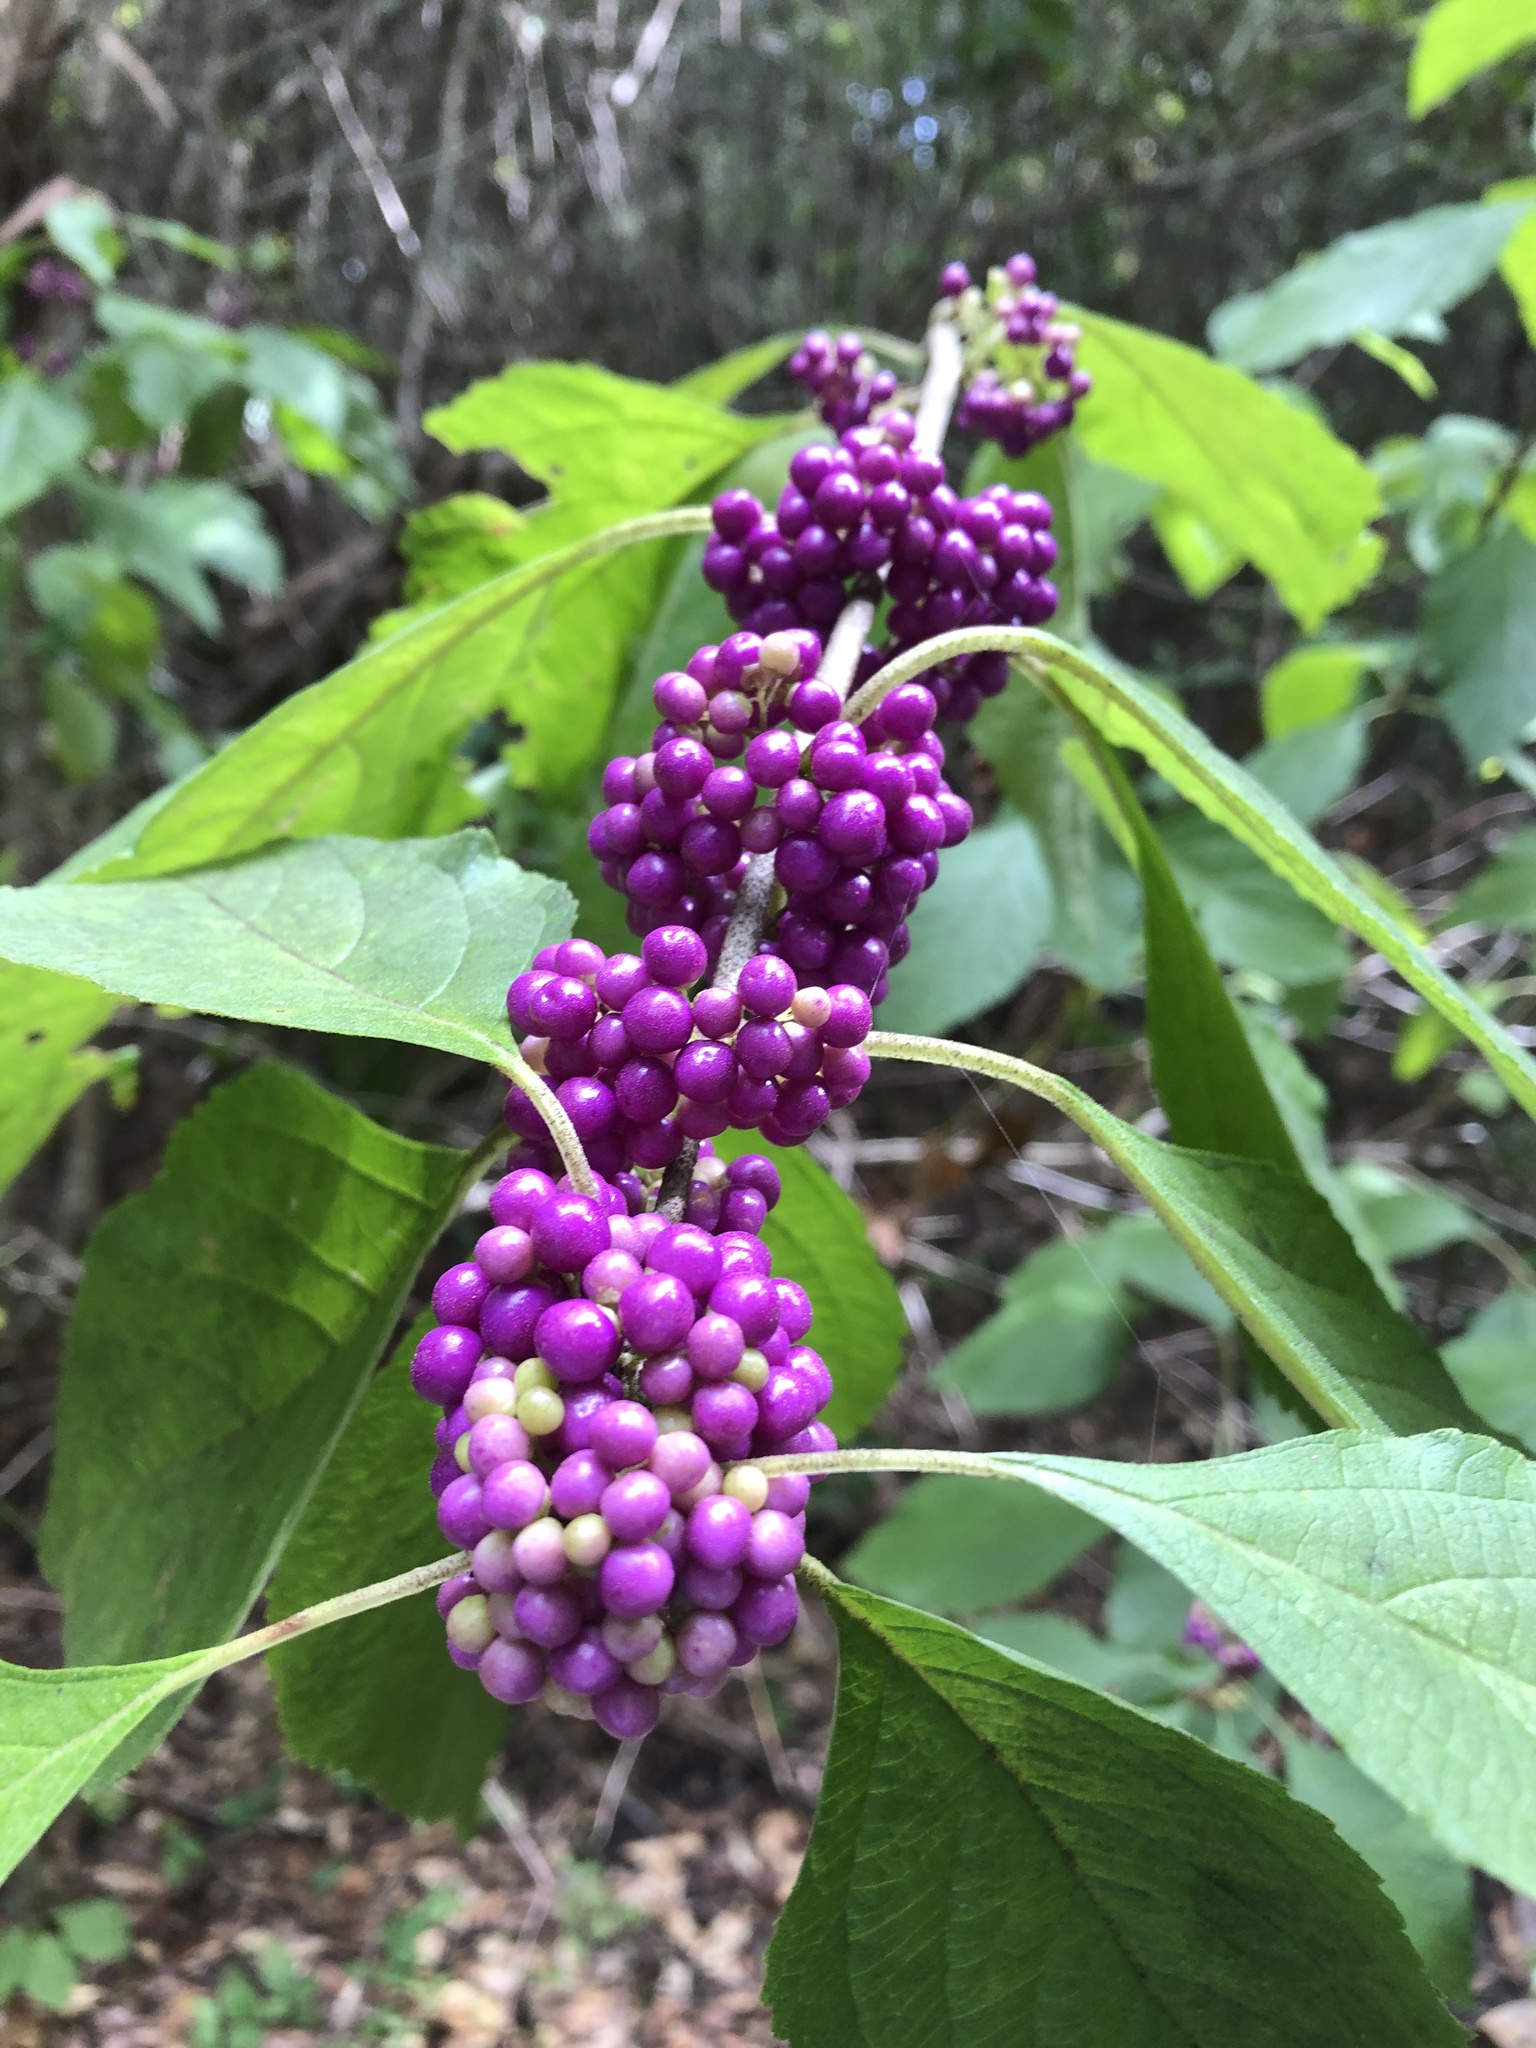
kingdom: Plantae
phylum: Tracheophyta
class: Magnoliopsida
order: Lamiales
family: Lamiaceae
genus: Callicarpa
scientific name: Callicarpa americana
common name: American beautyberry
